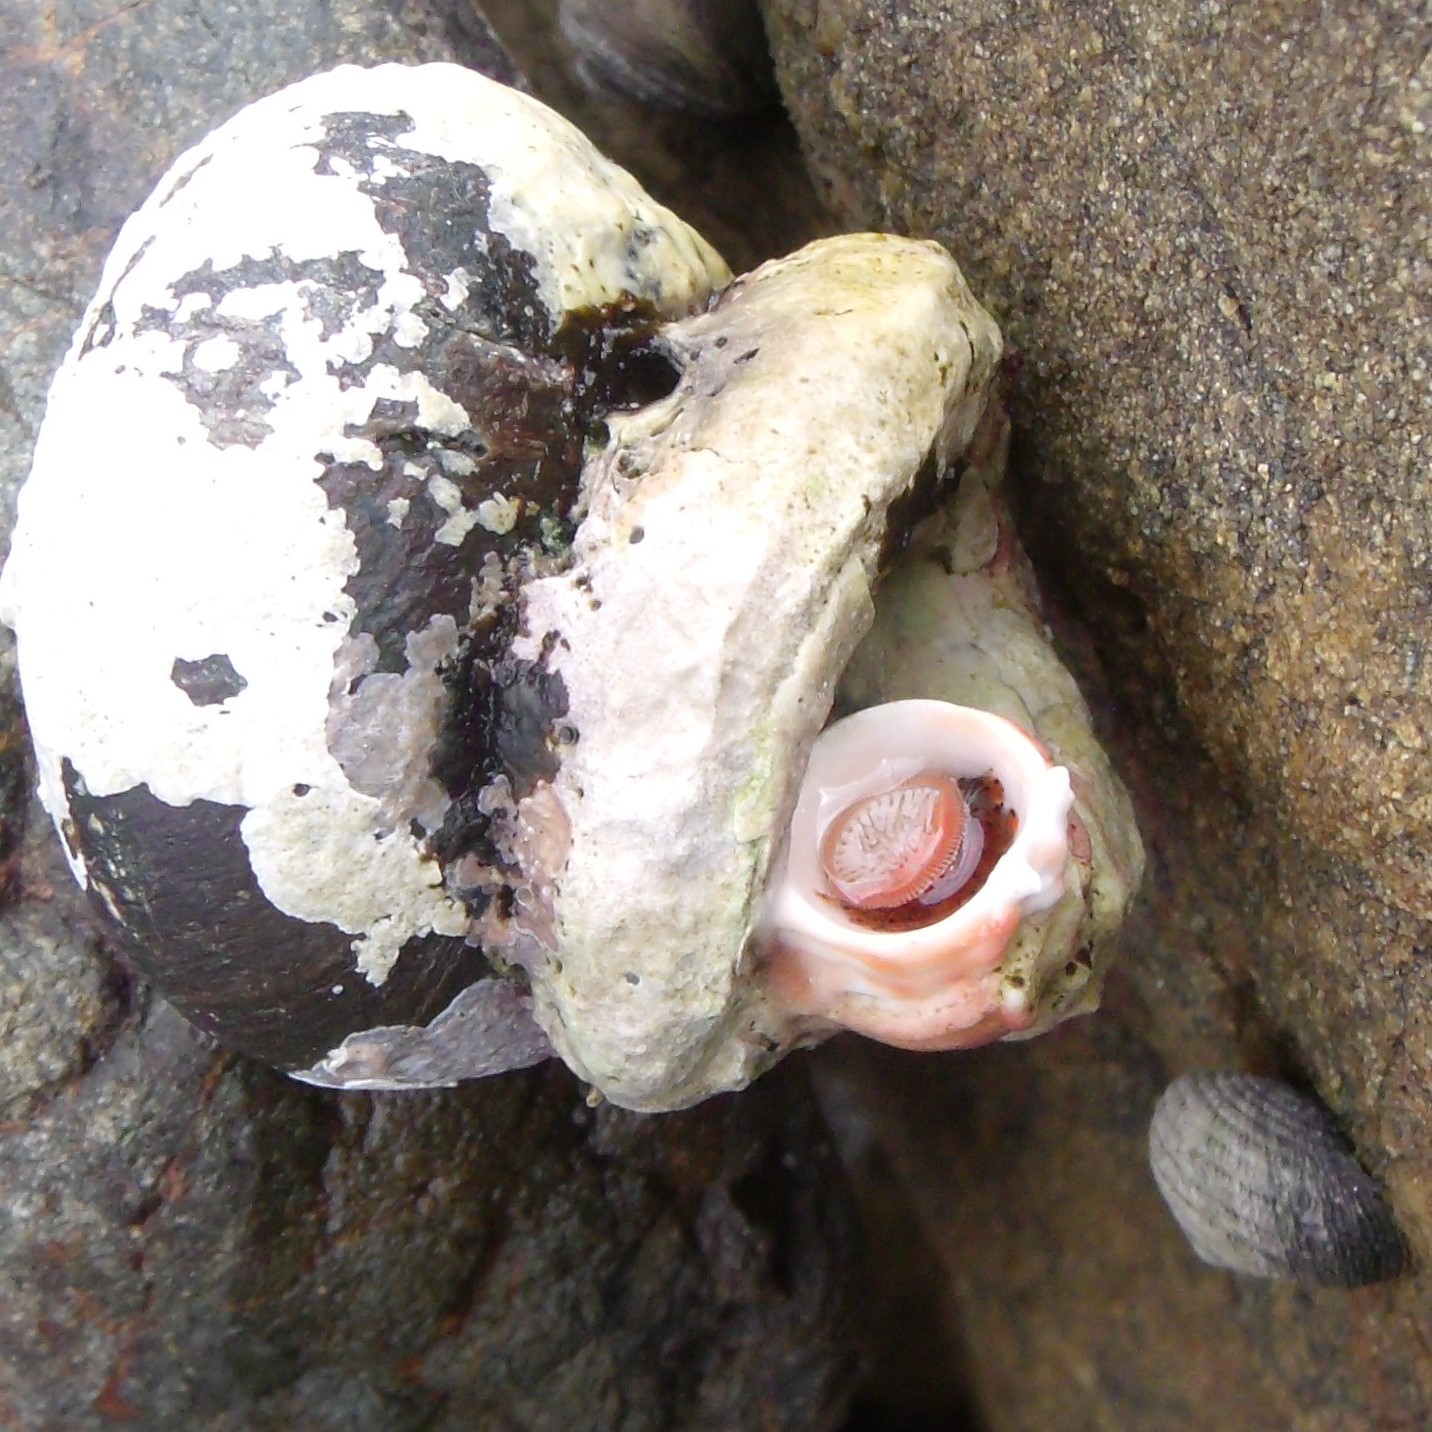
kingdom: Animalia
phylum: Annelida
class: Polychaeta
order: Sabellida
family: Serpulidae
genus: Galeolaria
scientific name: Galeolaria hystrix
